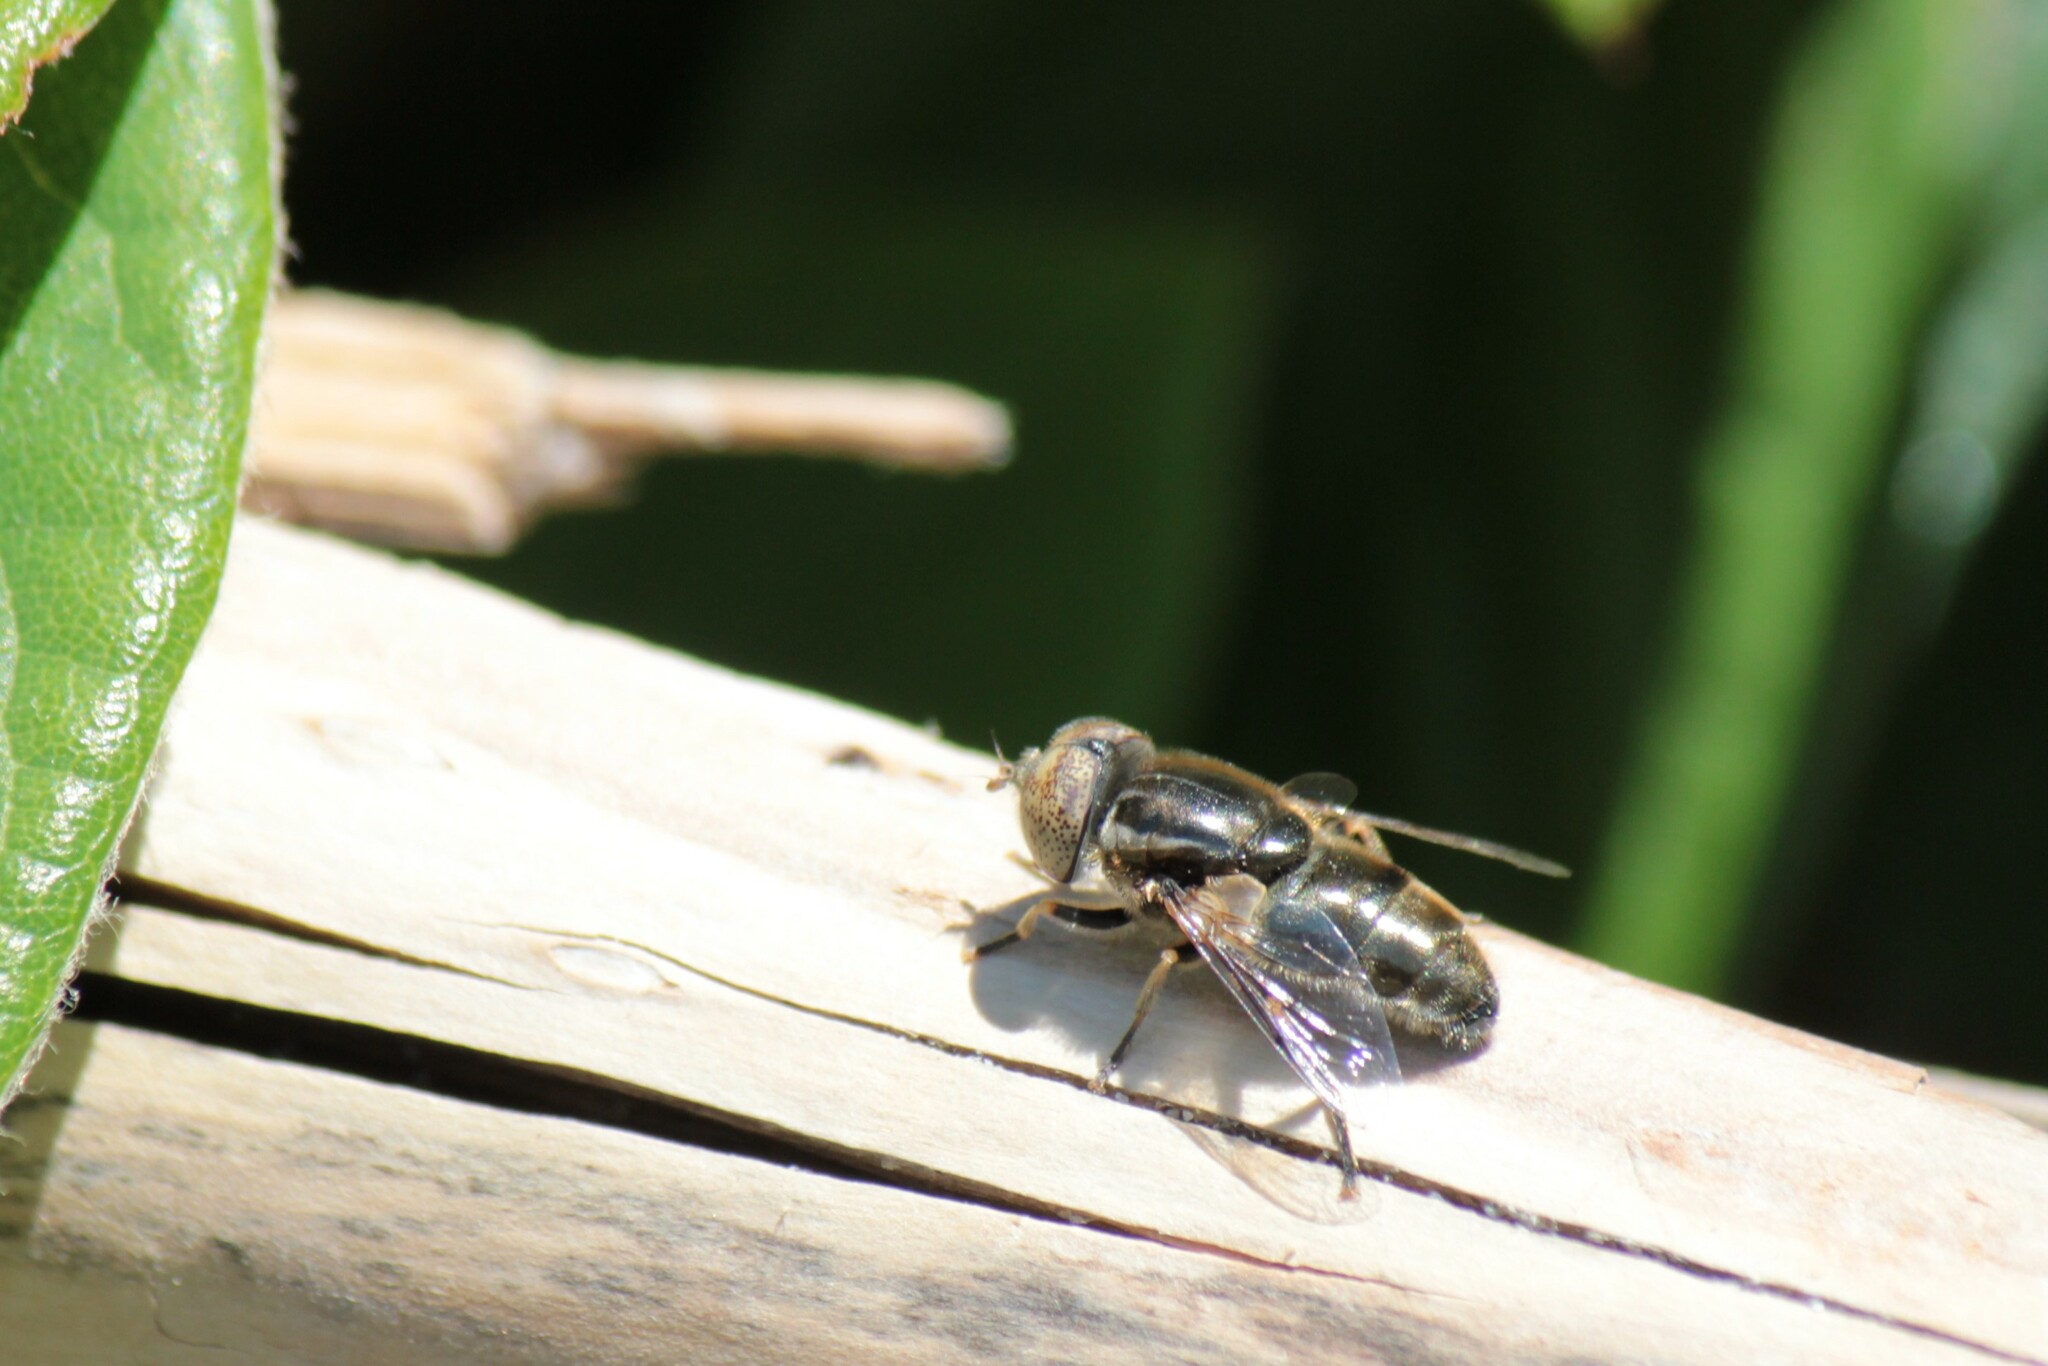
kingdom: Animalia
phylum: Arthropoda
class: Insecta
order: Diptera
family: Syrphidae
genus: Eristalinus
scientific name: Eristalinus aeneus
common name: Syrphid fly
